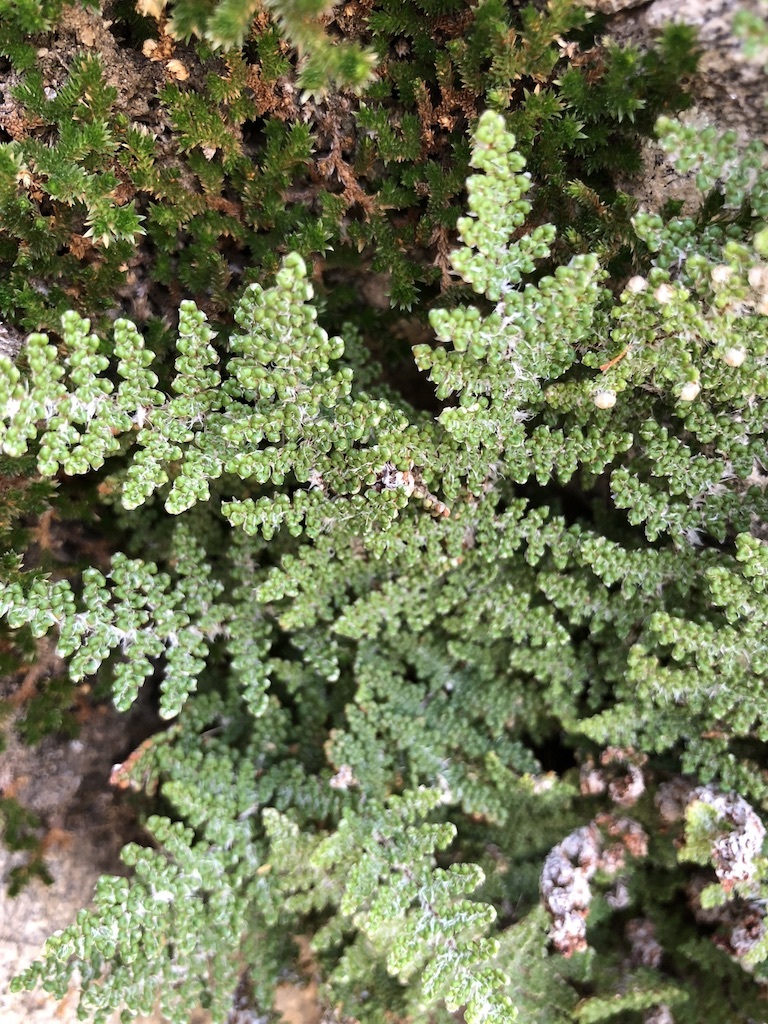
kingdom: Plantae
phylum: Tracheophyta
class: Polypodiopsida
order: Polypodiales
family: Pteridaceae
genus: Myriopteris
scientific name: Myriopteris covillei
